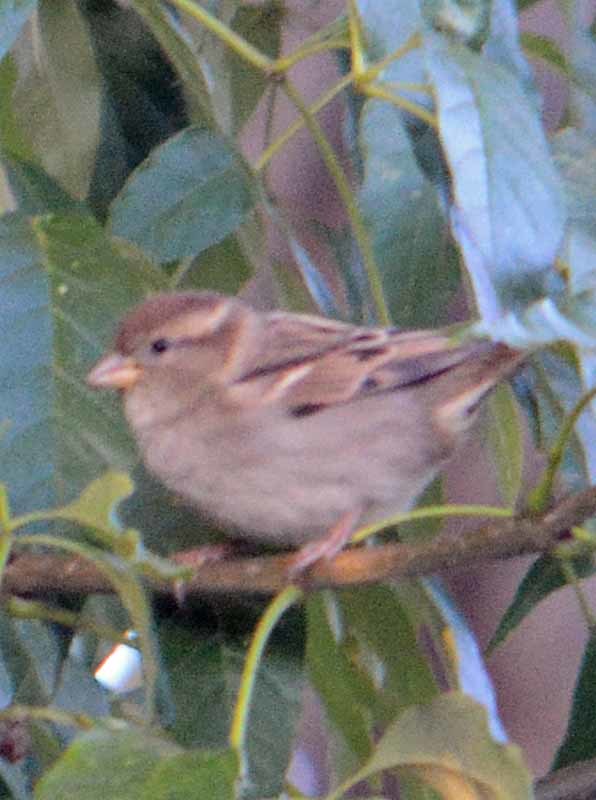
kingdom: Animalia
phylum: Chordata
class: Aves
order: Passeriformes
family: Passeridae
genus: Passer
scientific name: Passer domesticus
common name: House sparrow
